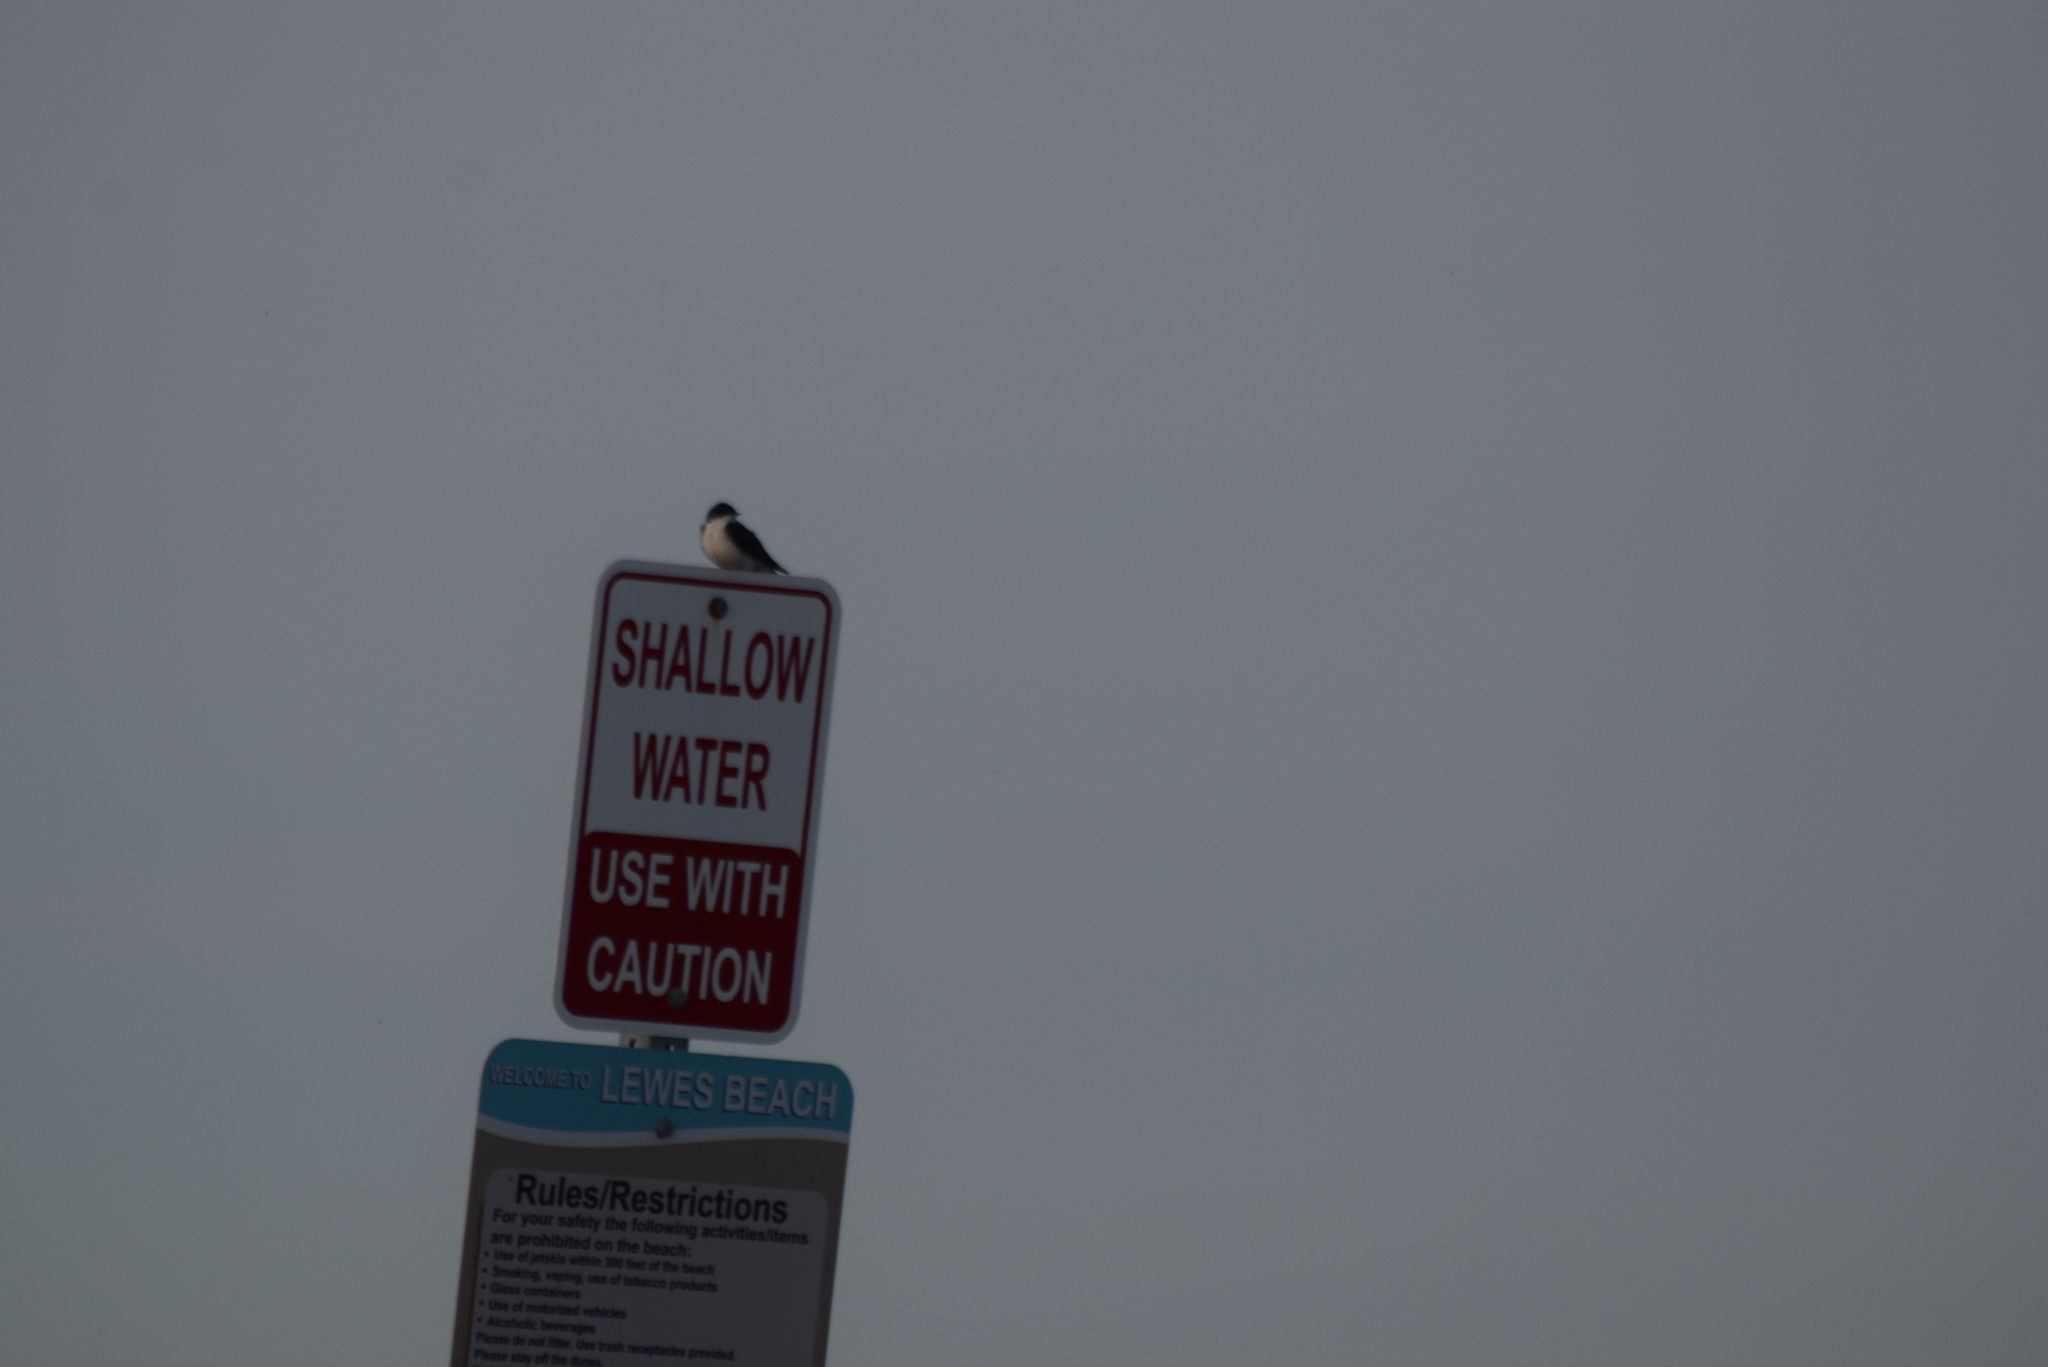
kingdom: Animalia
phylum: Chordata
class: Aves
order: Passeriformes
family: Hirundinidae
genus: Tachycineta
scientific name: Tachycineta bicolor
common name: Tree swallow
